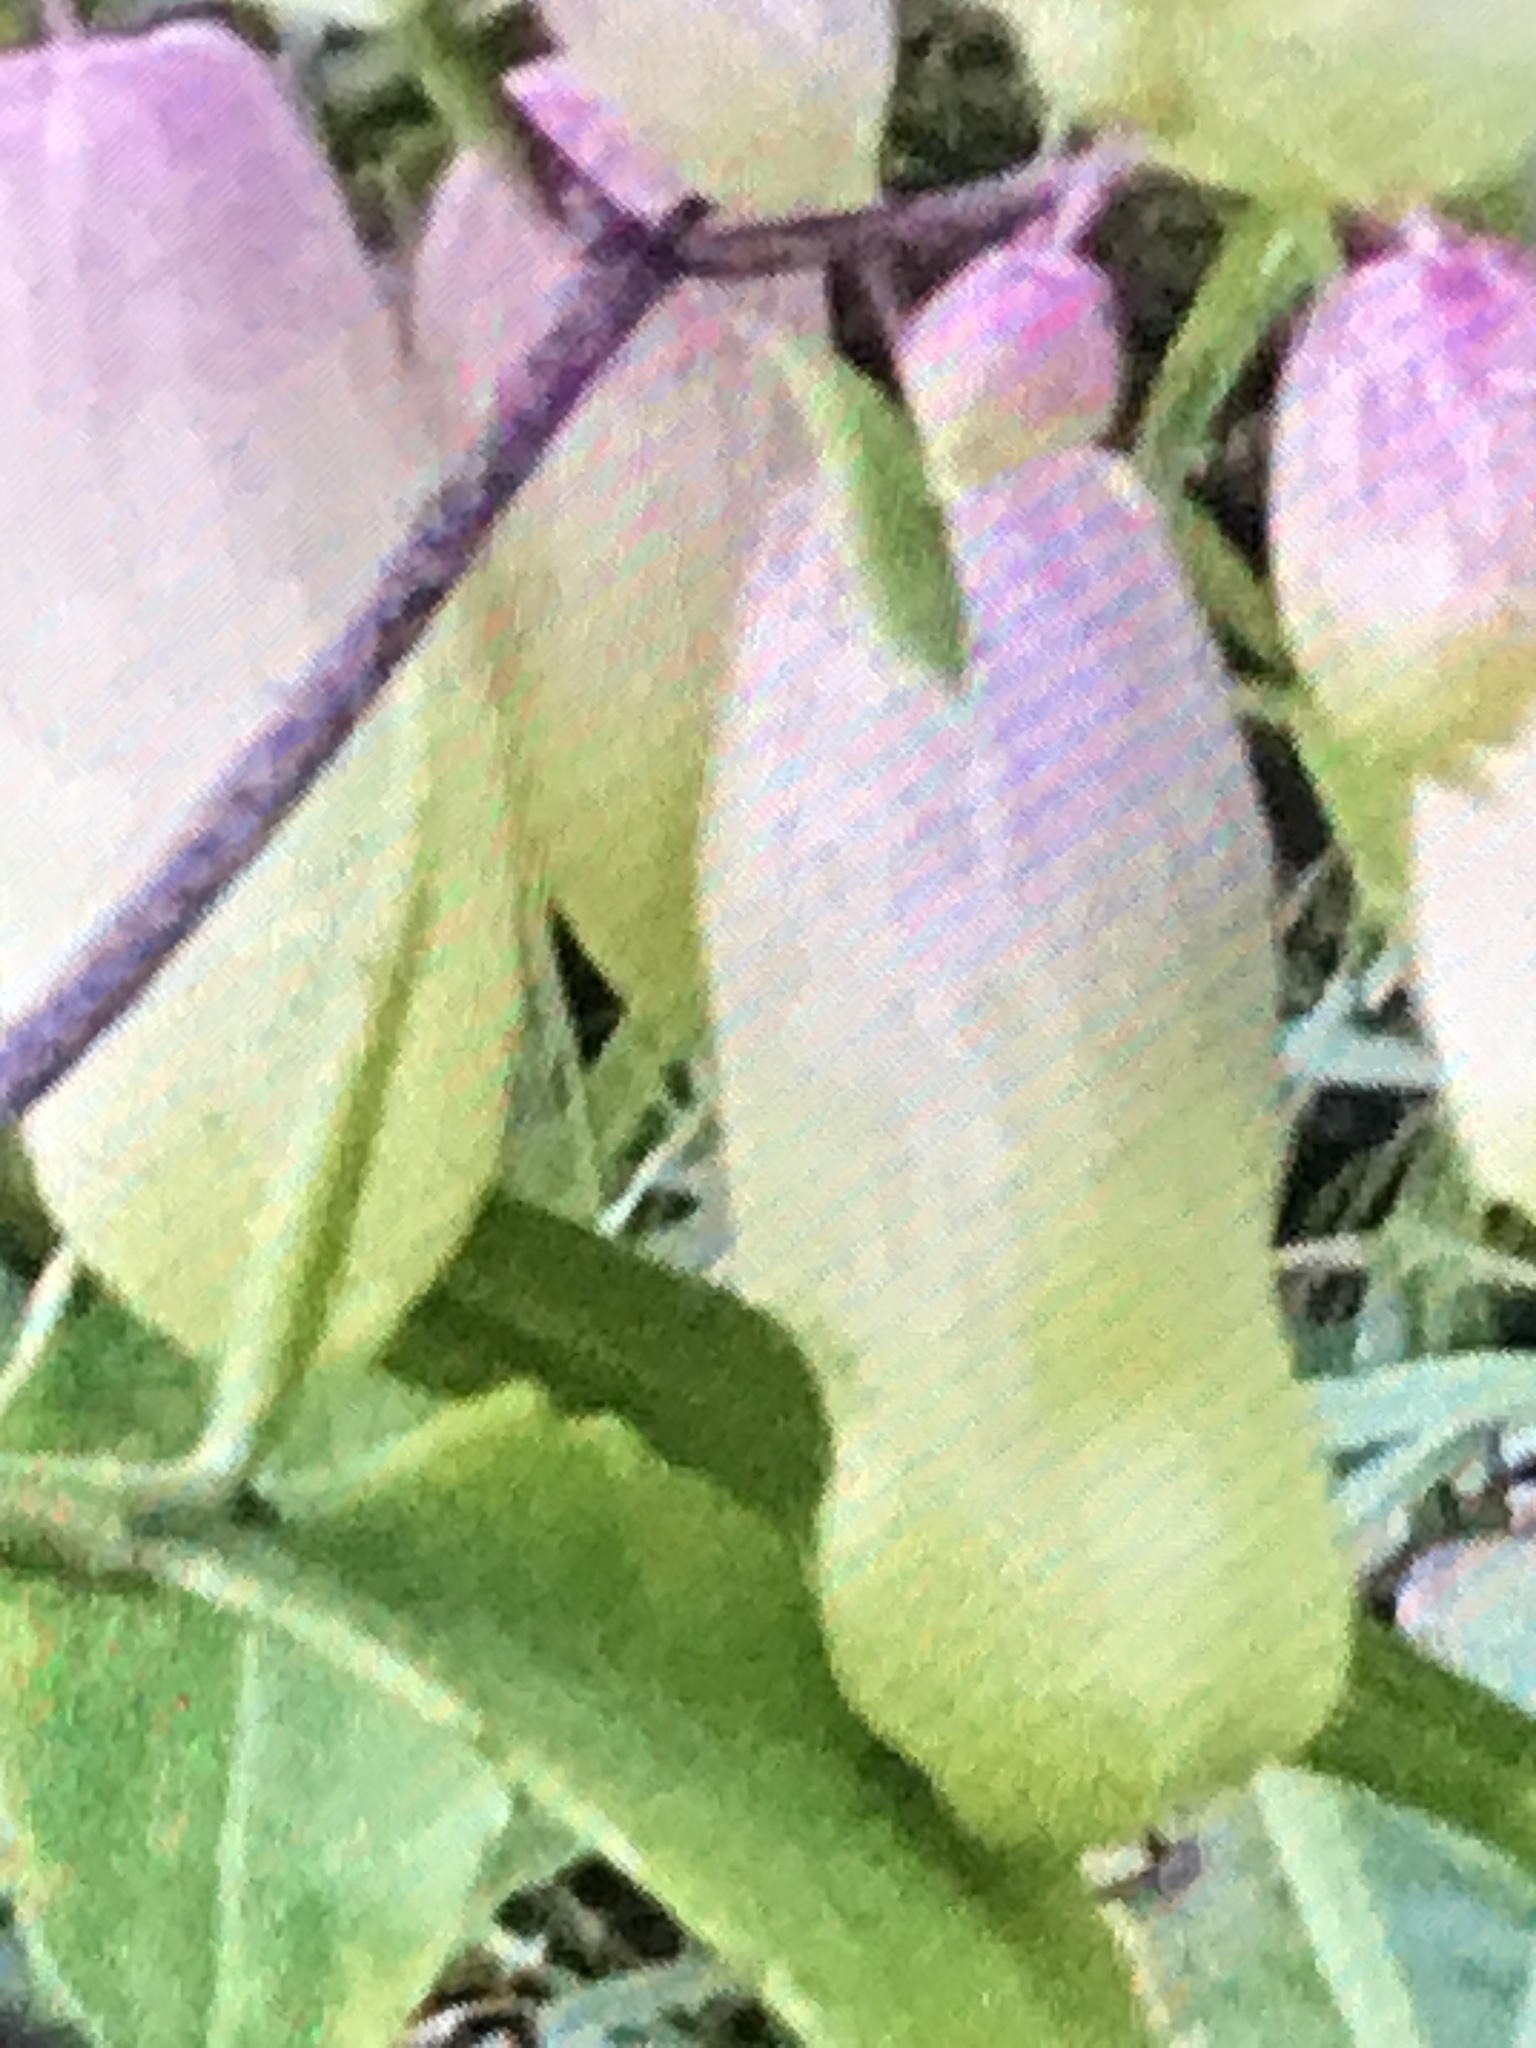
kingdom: Plantae
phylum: Tracheophyta
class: Magnoliopsida
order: Saxifragales
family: Crassulaceae
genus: Kalanchoe
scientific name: Kalanchoe pinnata
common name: Cathedral bells
